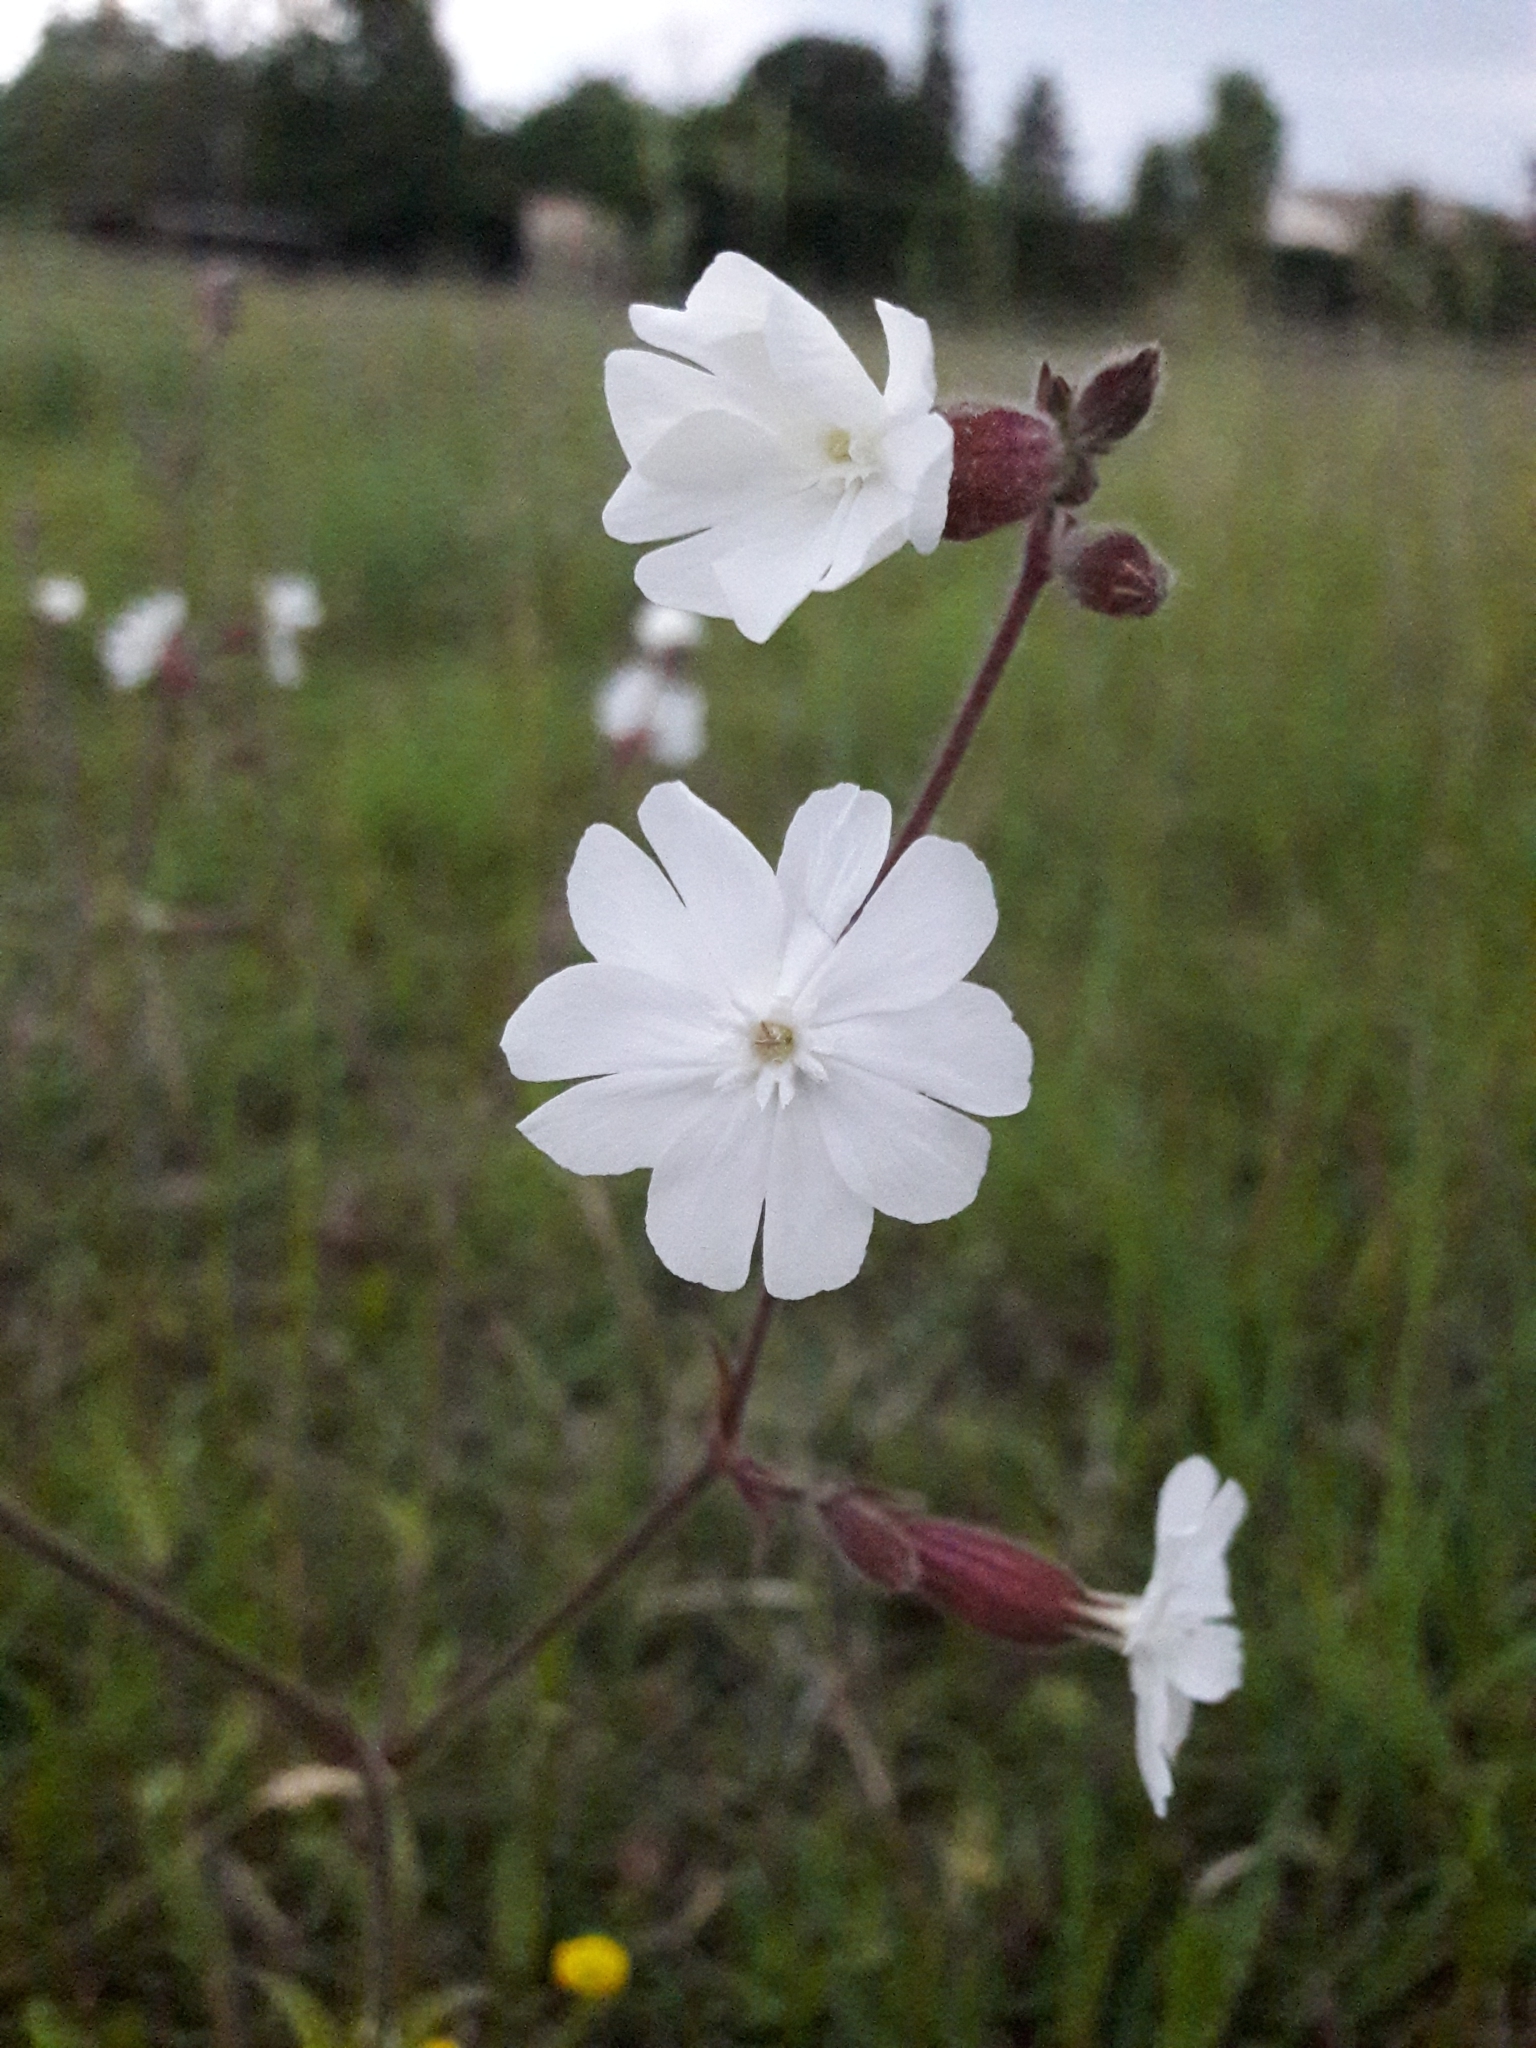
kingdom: Plantae
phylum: Tracheophyta
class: Magnoliopsida
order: Caryophyllales
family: Caryophyllaceae
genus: Silene
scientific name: Silene latifolia
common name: White campion
